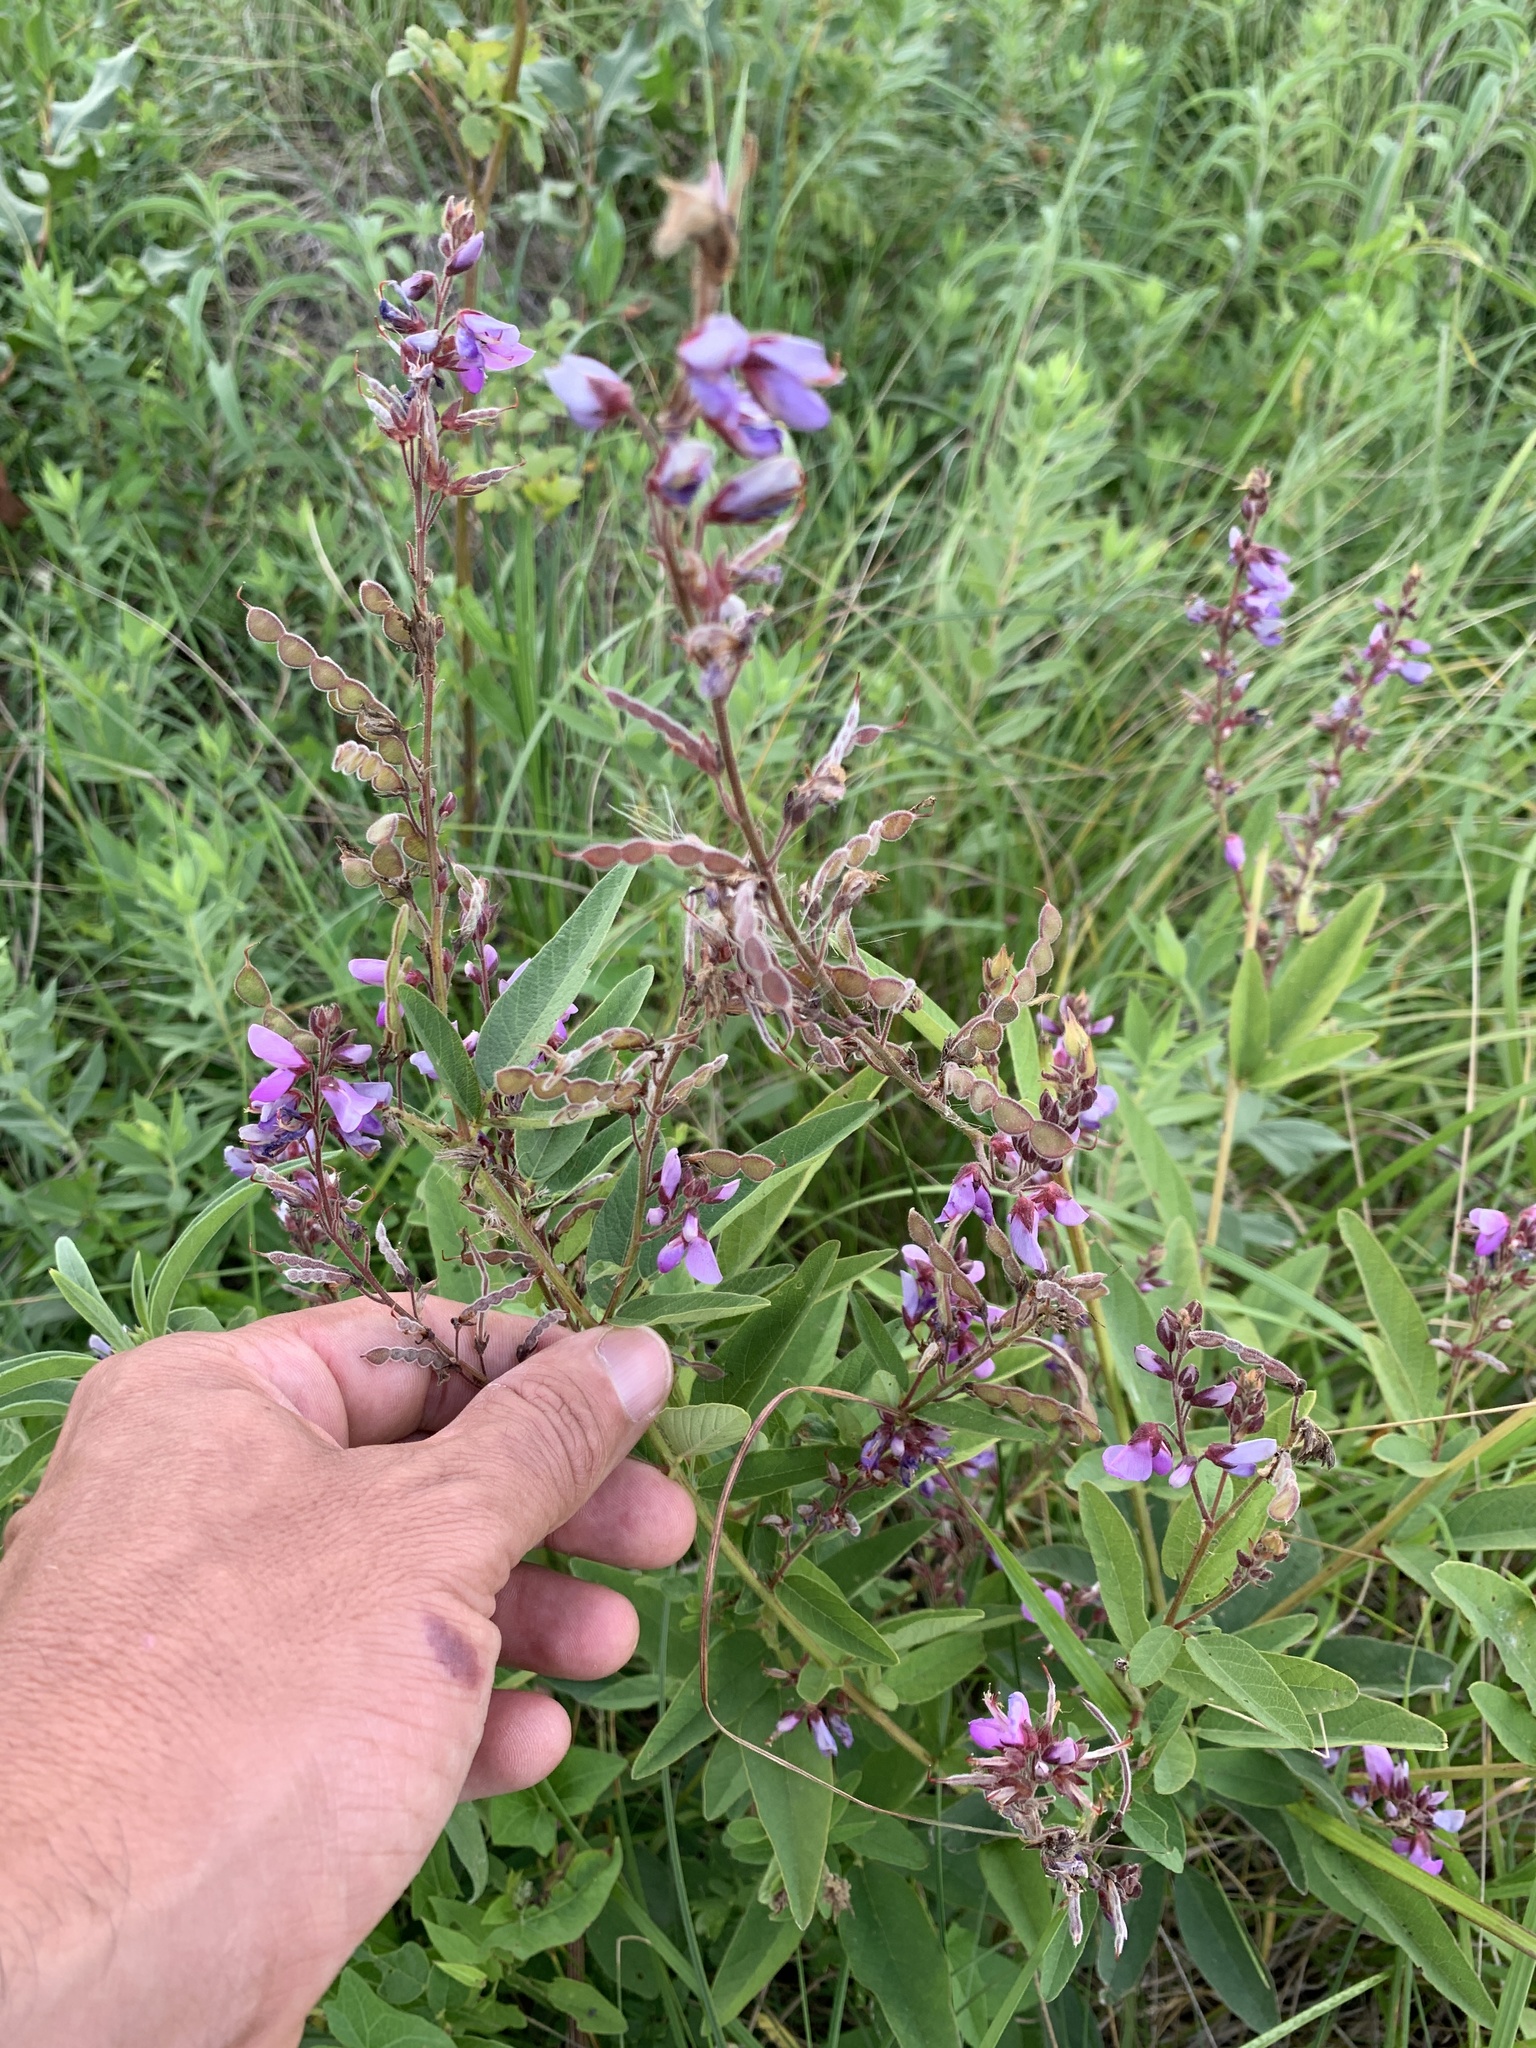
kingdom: Plantae
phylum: Tracheophyta
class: Magnoliopsida
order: Fabales
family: Fabaceae
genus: Desmodium
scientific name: Desmodium canadense
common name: Canada tick-trefoil
